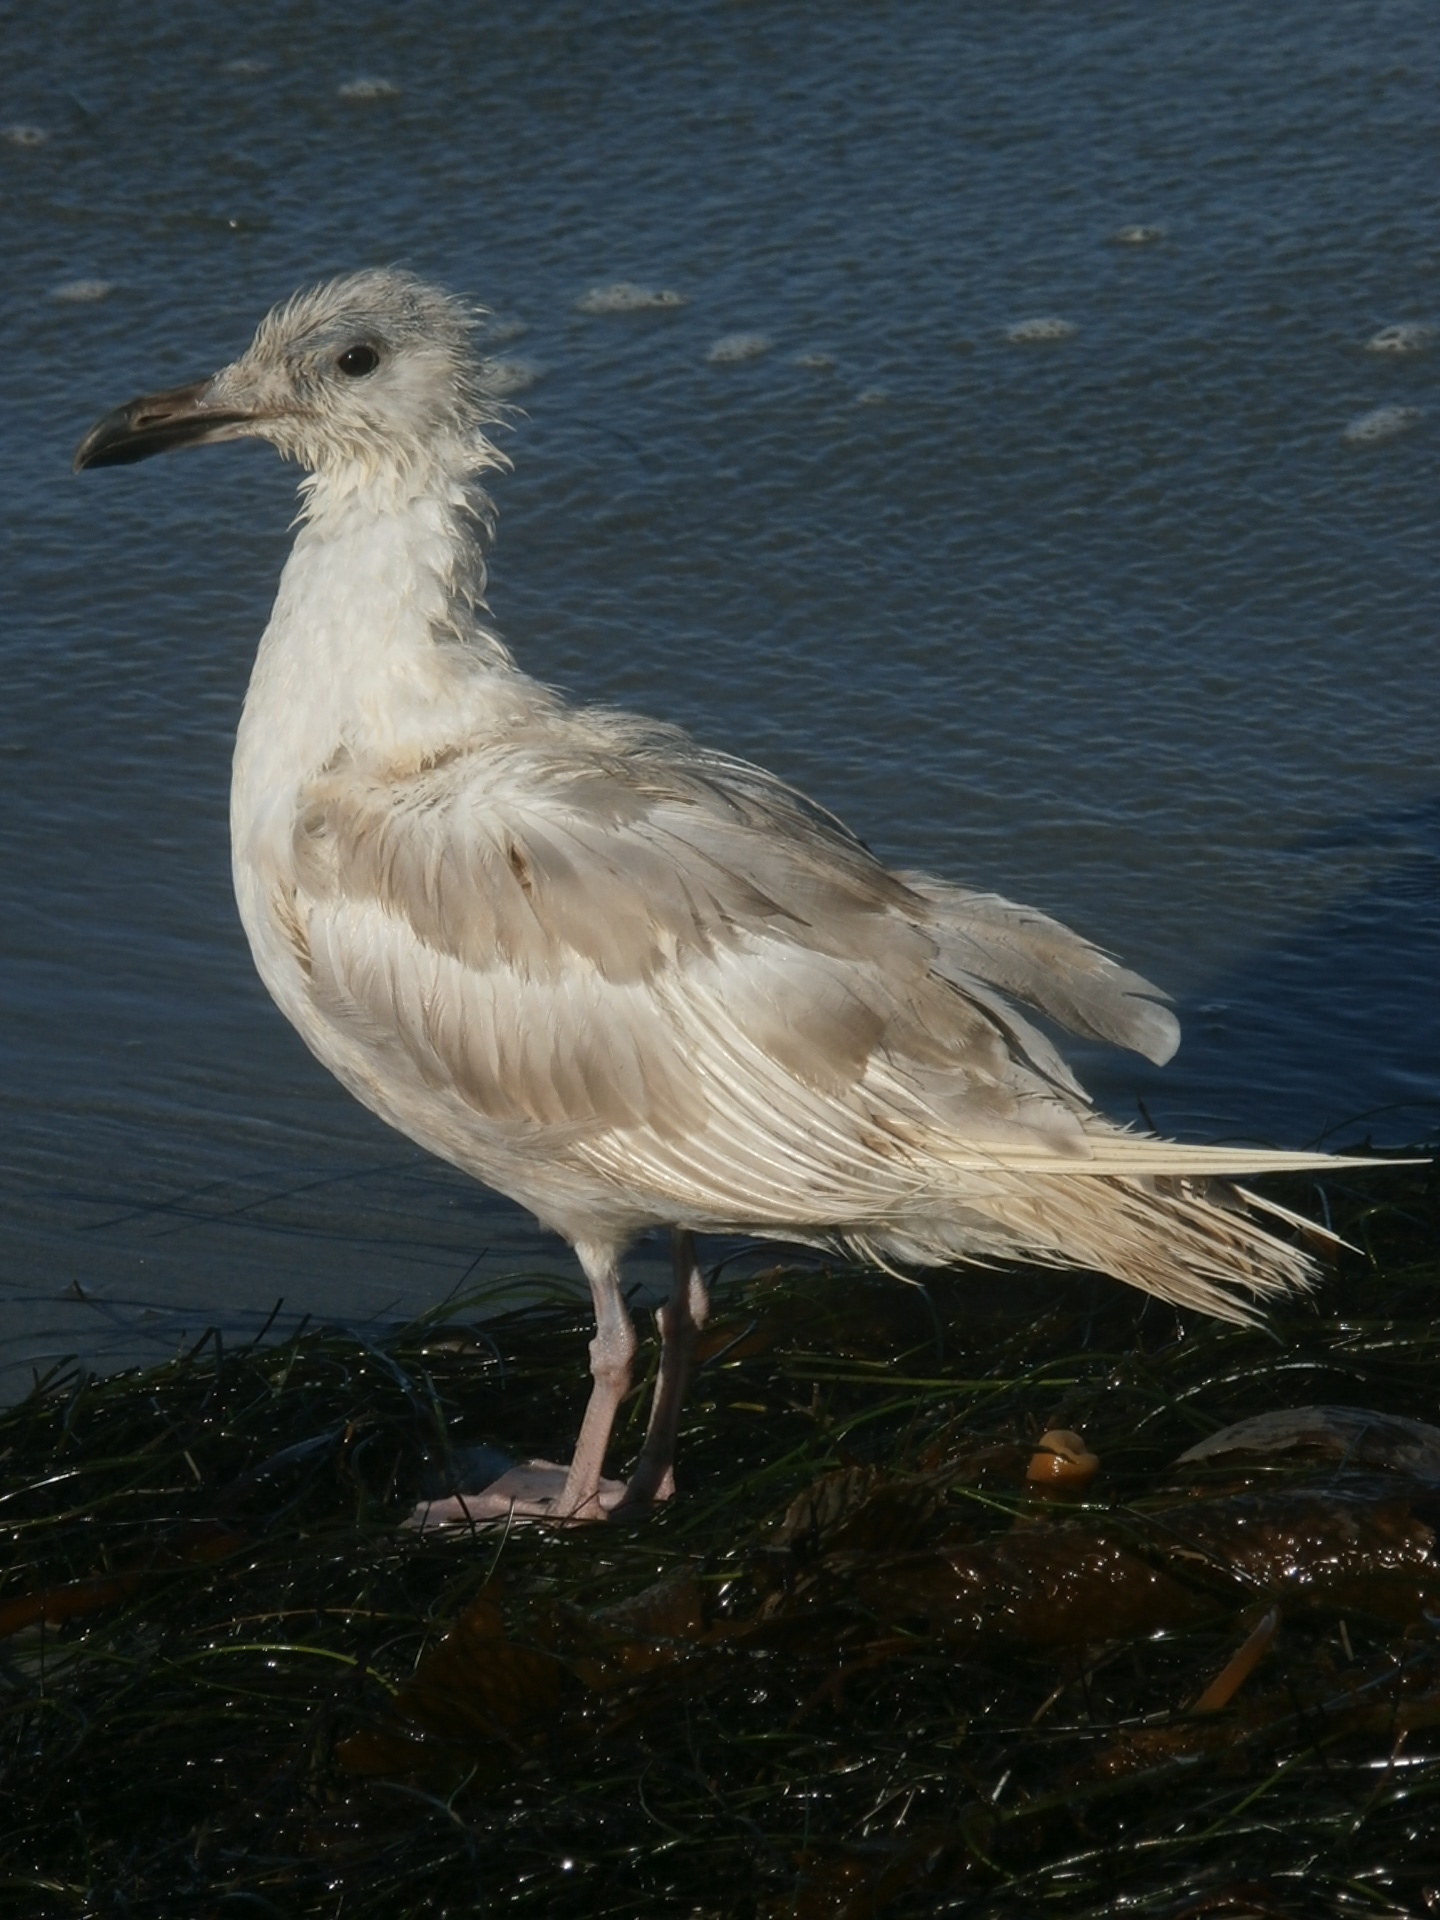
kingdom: Animalia
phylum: Chordata
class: Aves
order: Charadriiformes
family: Laridae
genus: Larus
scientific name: Larus glaucescens
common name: Glaucous-winged gull
